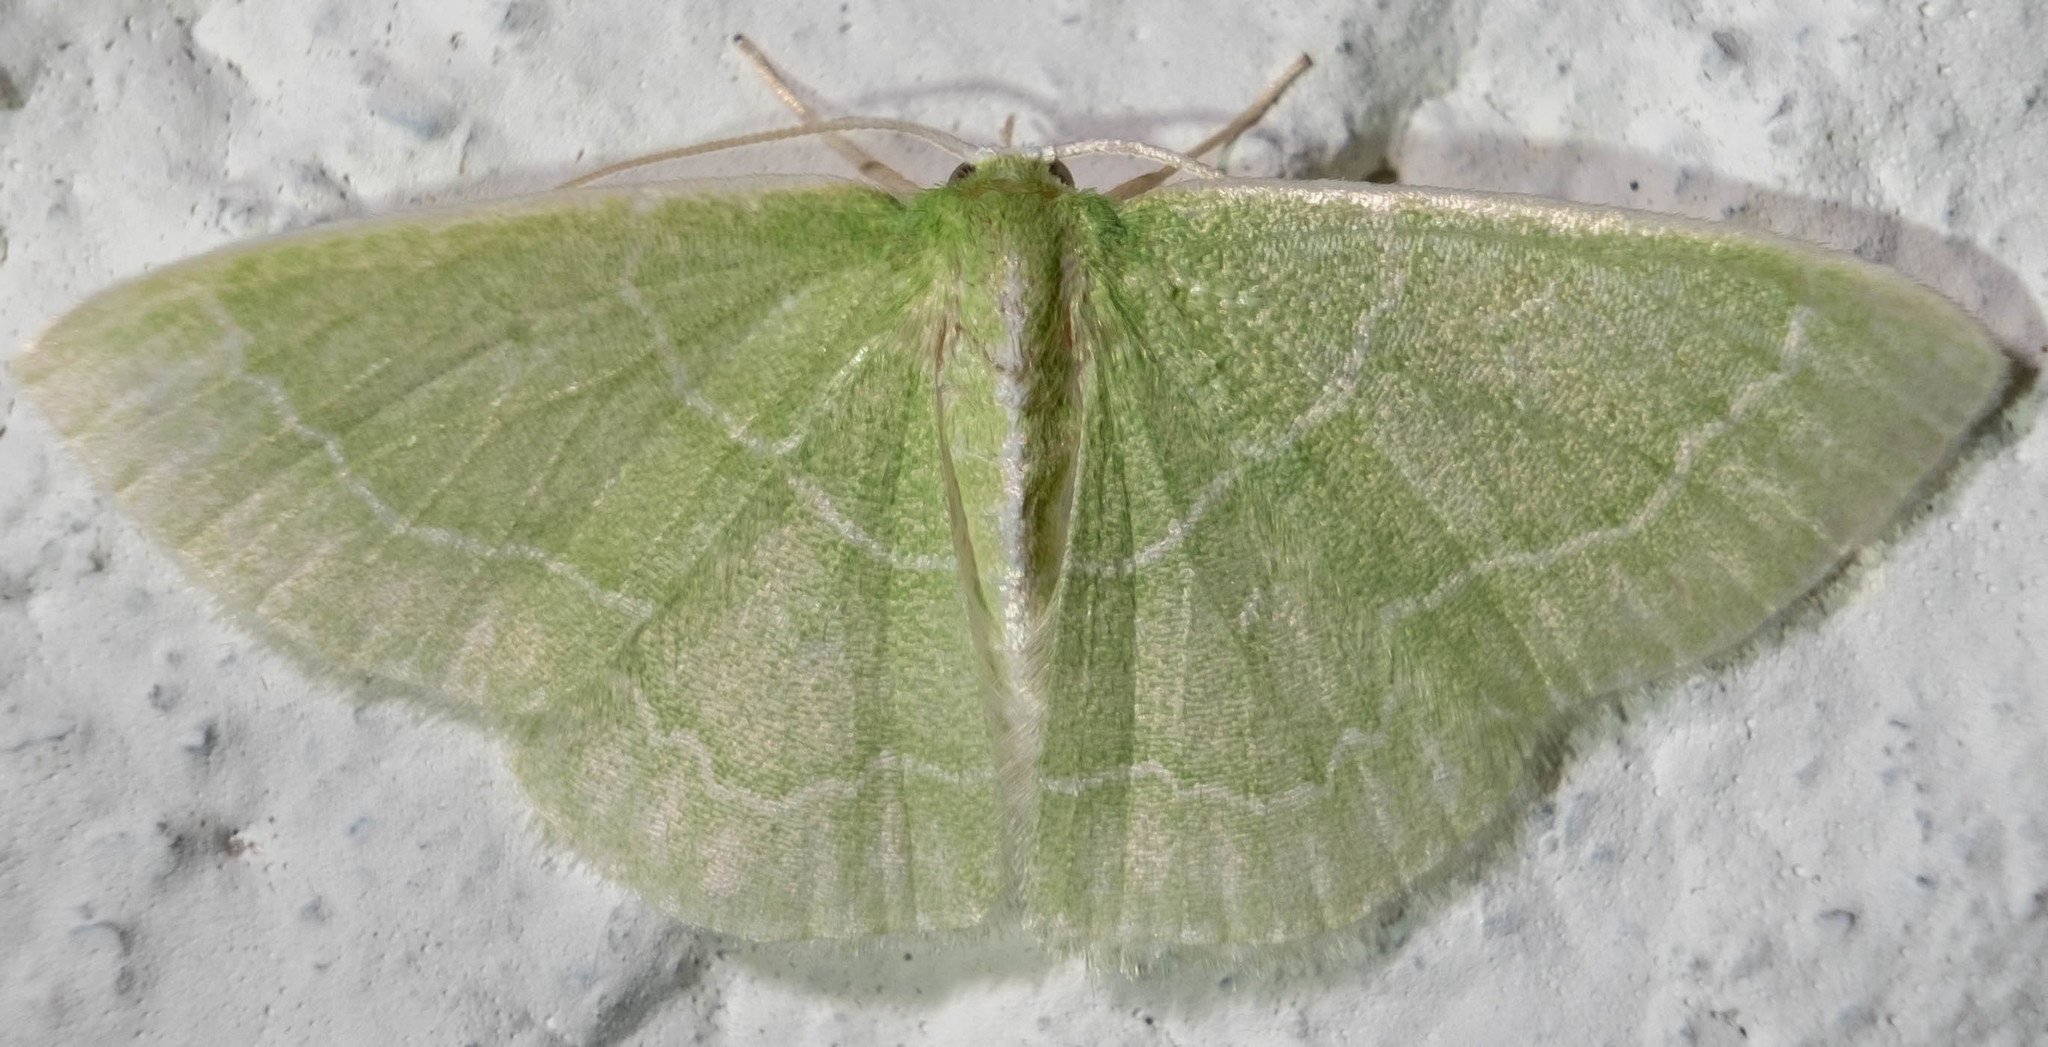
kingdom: Animalia
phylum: Arthropoda
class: Insecta
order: Lepidoptera
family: Geometridae
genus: Synchlora
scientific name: Synchlora aerata
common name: Wavy-lined emerald
